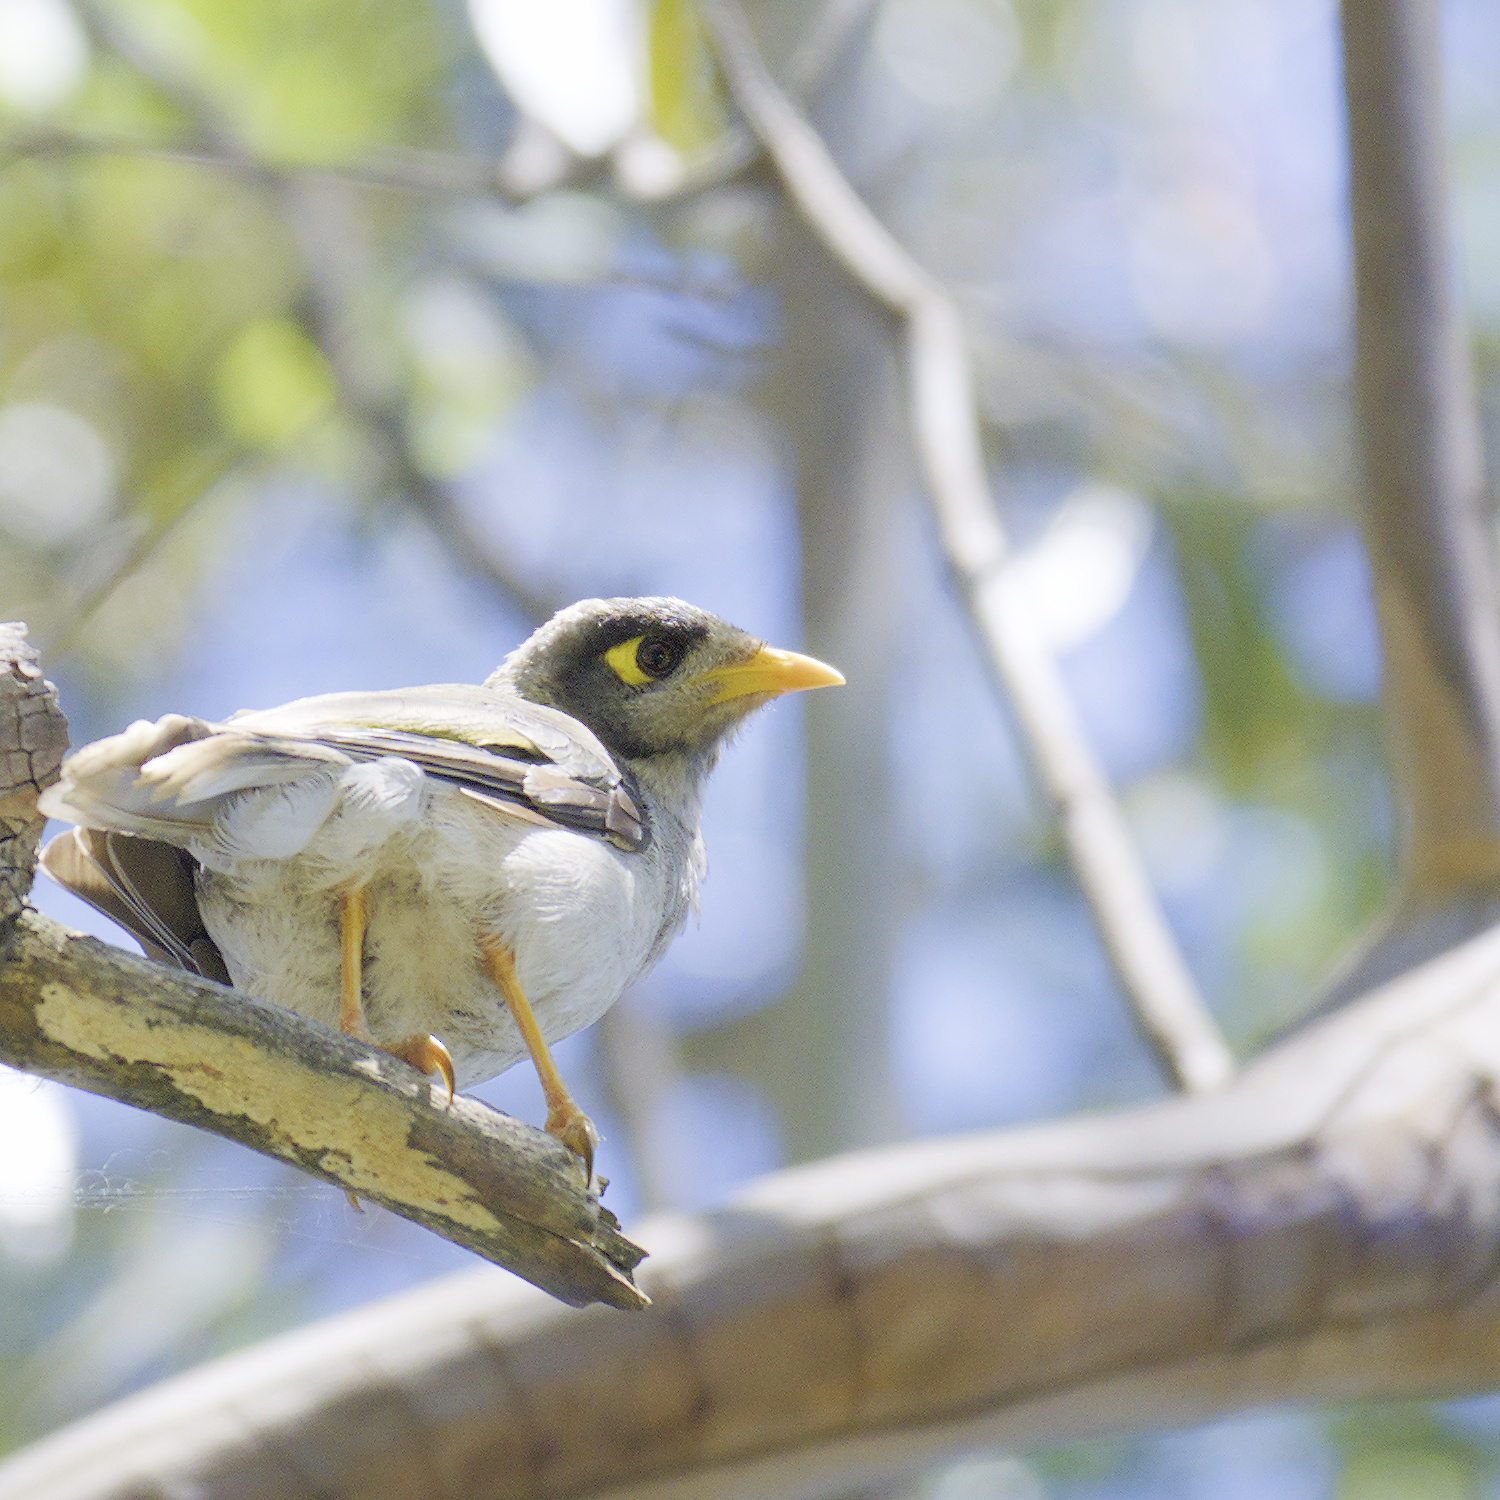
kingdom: Animalia
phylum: Chordata
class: Aves
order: Passeriformes
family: Meliphagidae
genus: Manorina
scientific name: Manorina melanocephala
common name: Noisy miner
